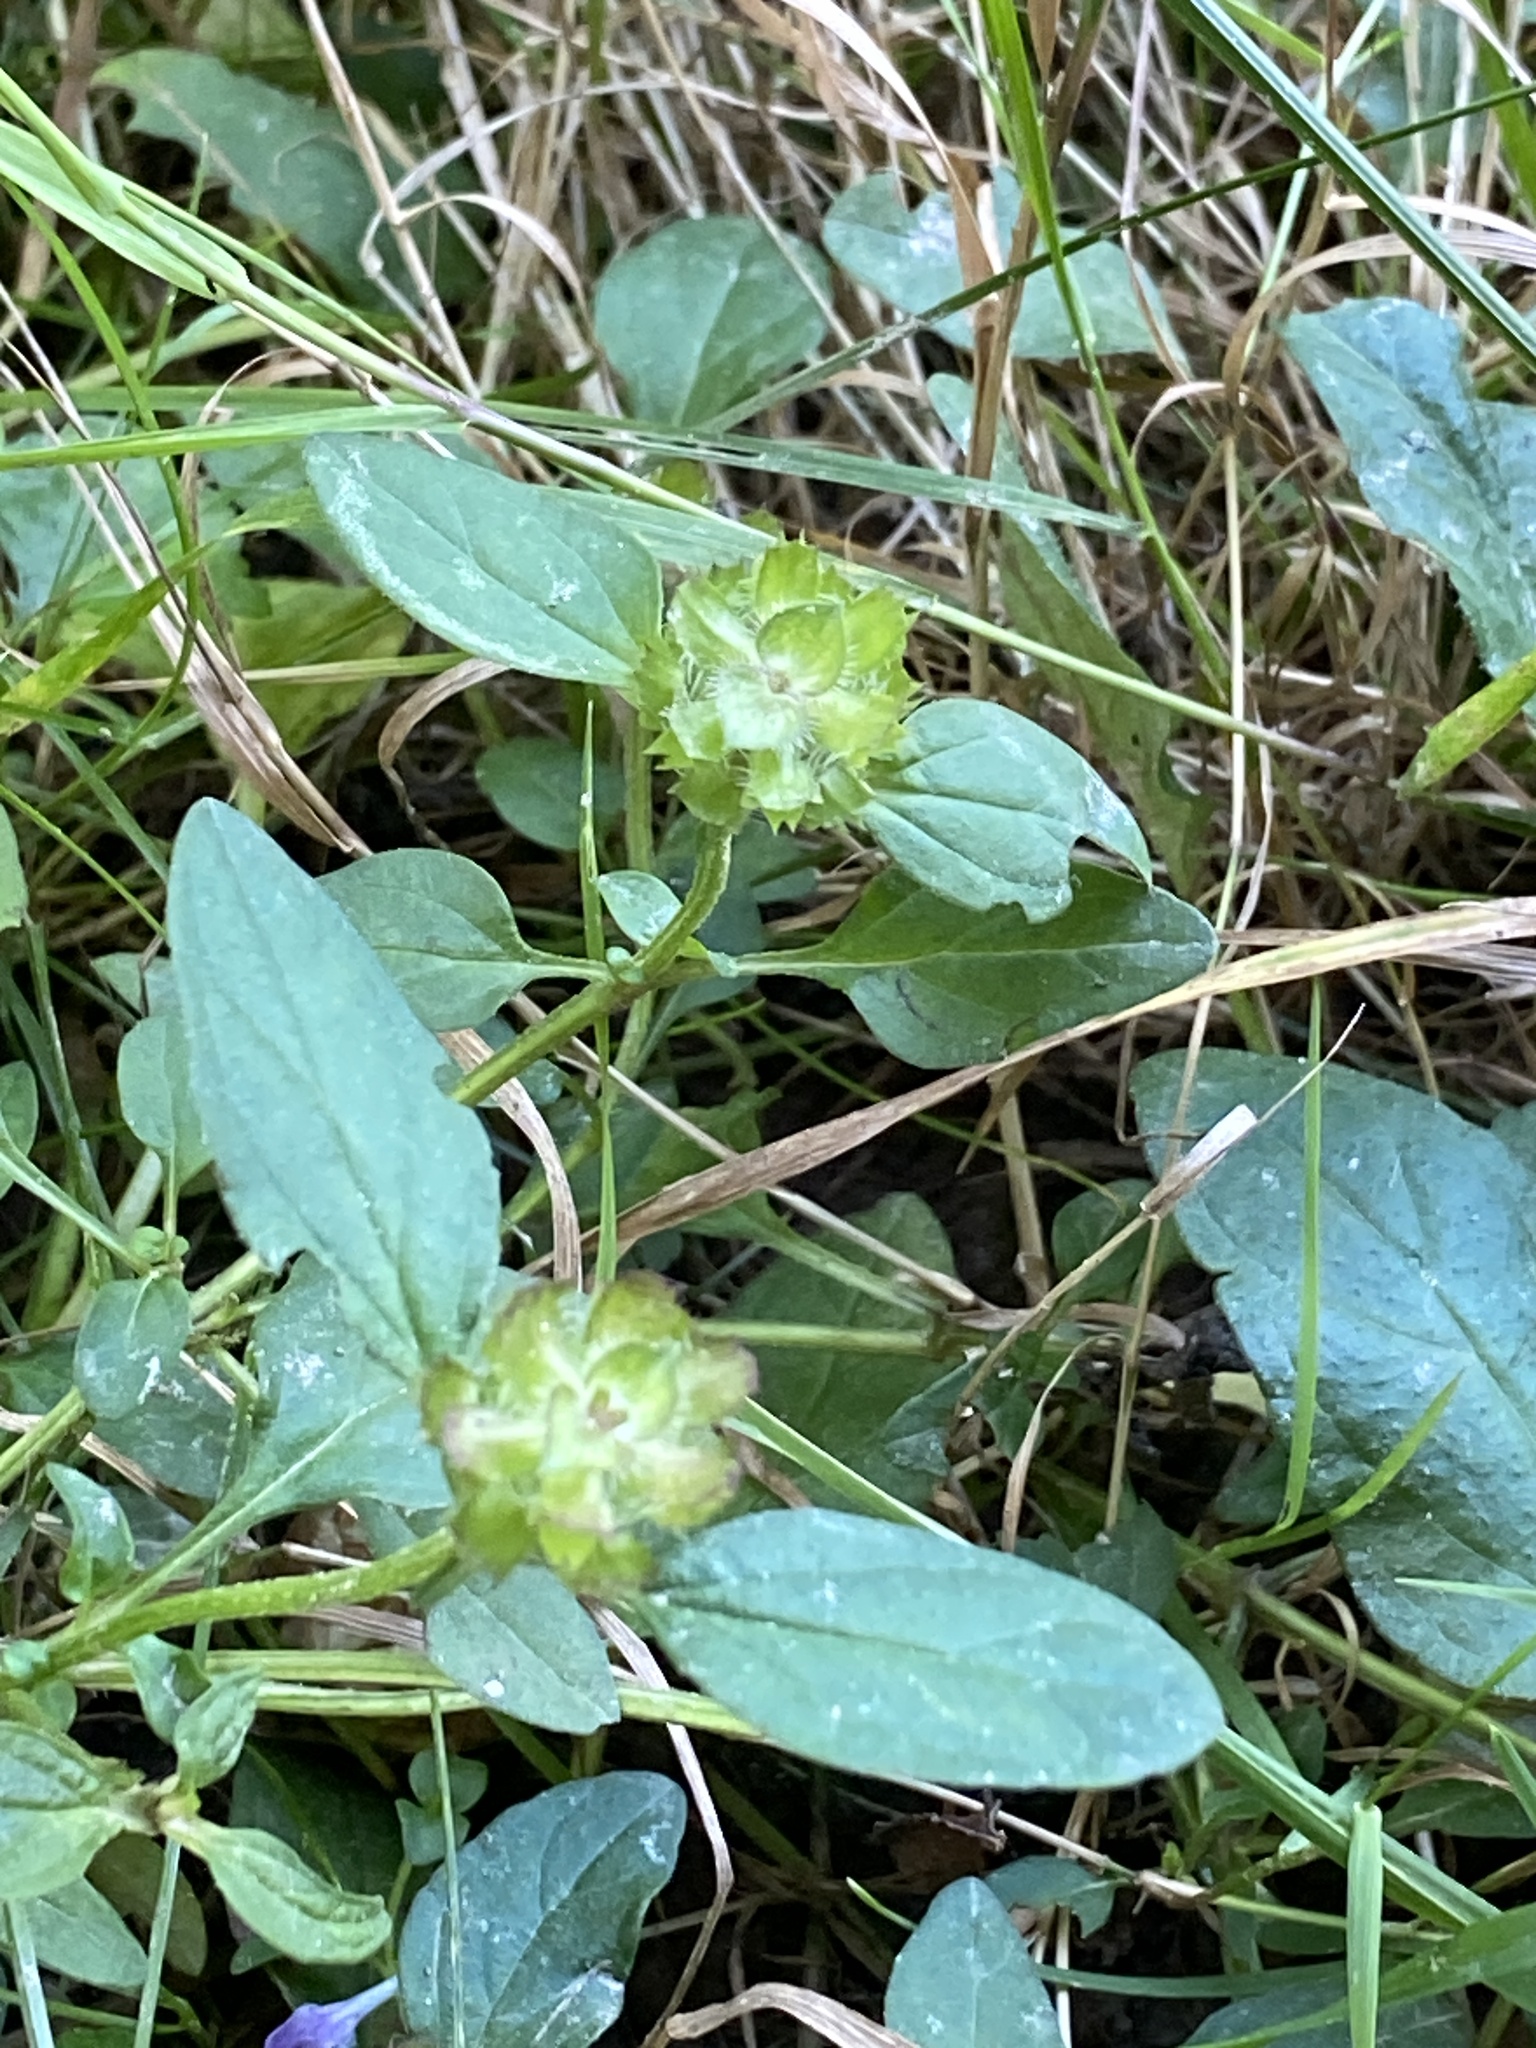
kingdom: Plantae
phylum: Tracheophyta
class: Magnoliopsida
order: Lamiales
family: Lamiaceae
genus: Prunella
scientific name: Prunella vulgaris
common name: Heal-all
